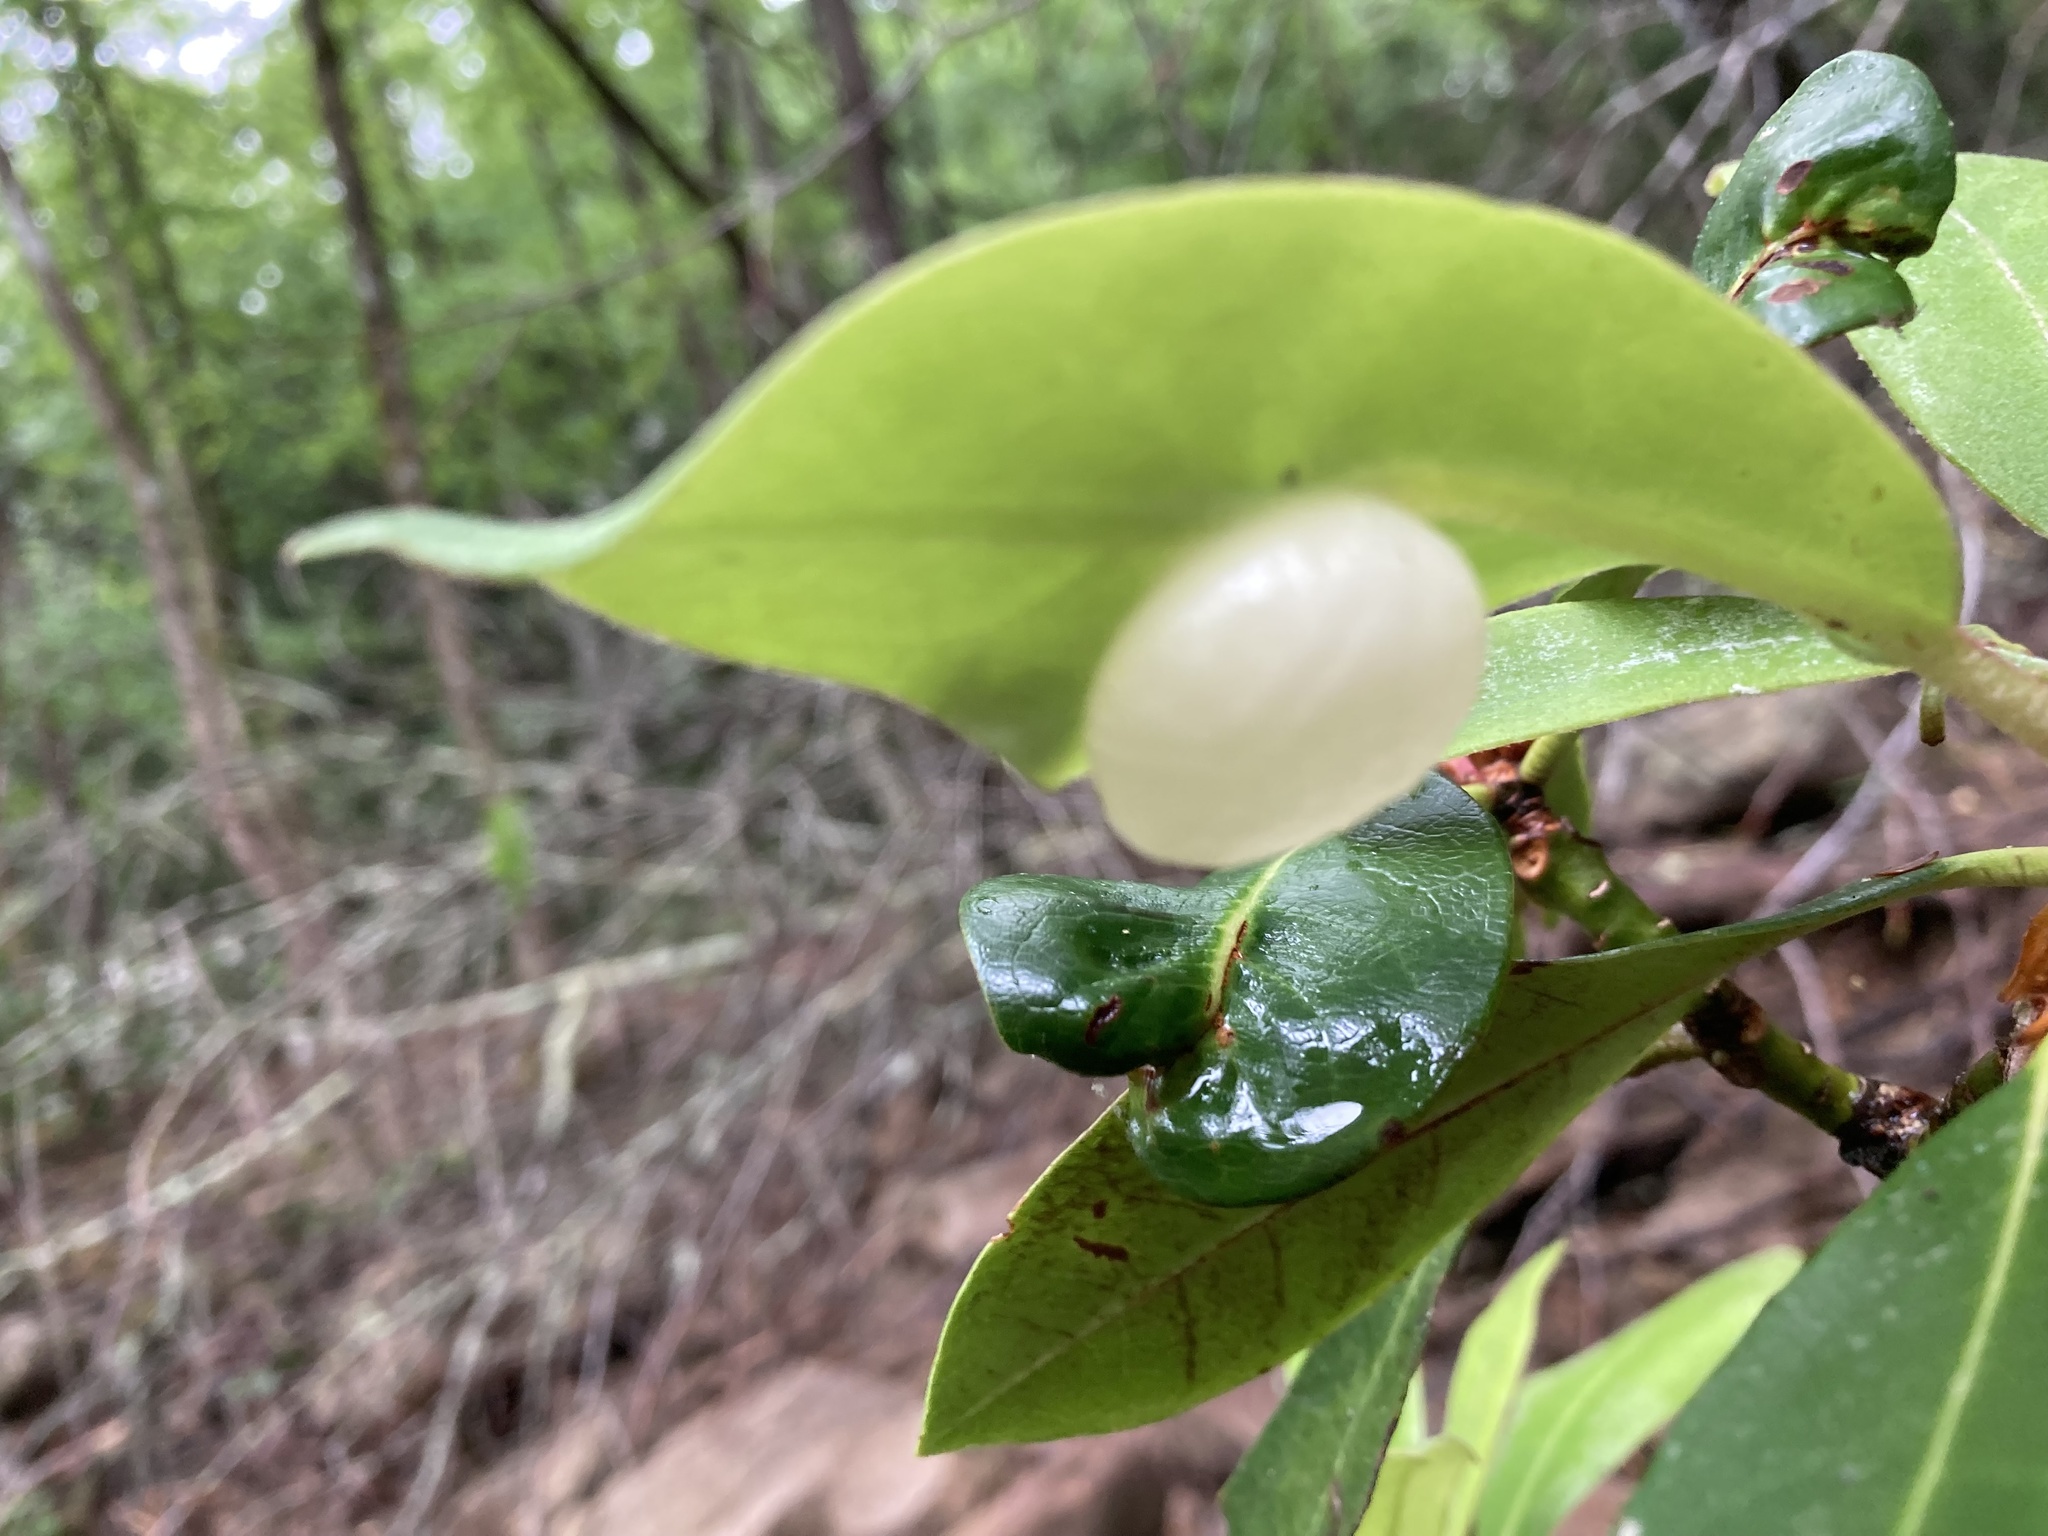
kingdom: Fungi
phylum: Basidiomycota
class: Exobasidiomycetes
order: Exobasidiales
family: Exobasidiaceae
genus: Exobasidium
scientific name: Exobasidium vaccinii
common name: Cowberry redleaf
